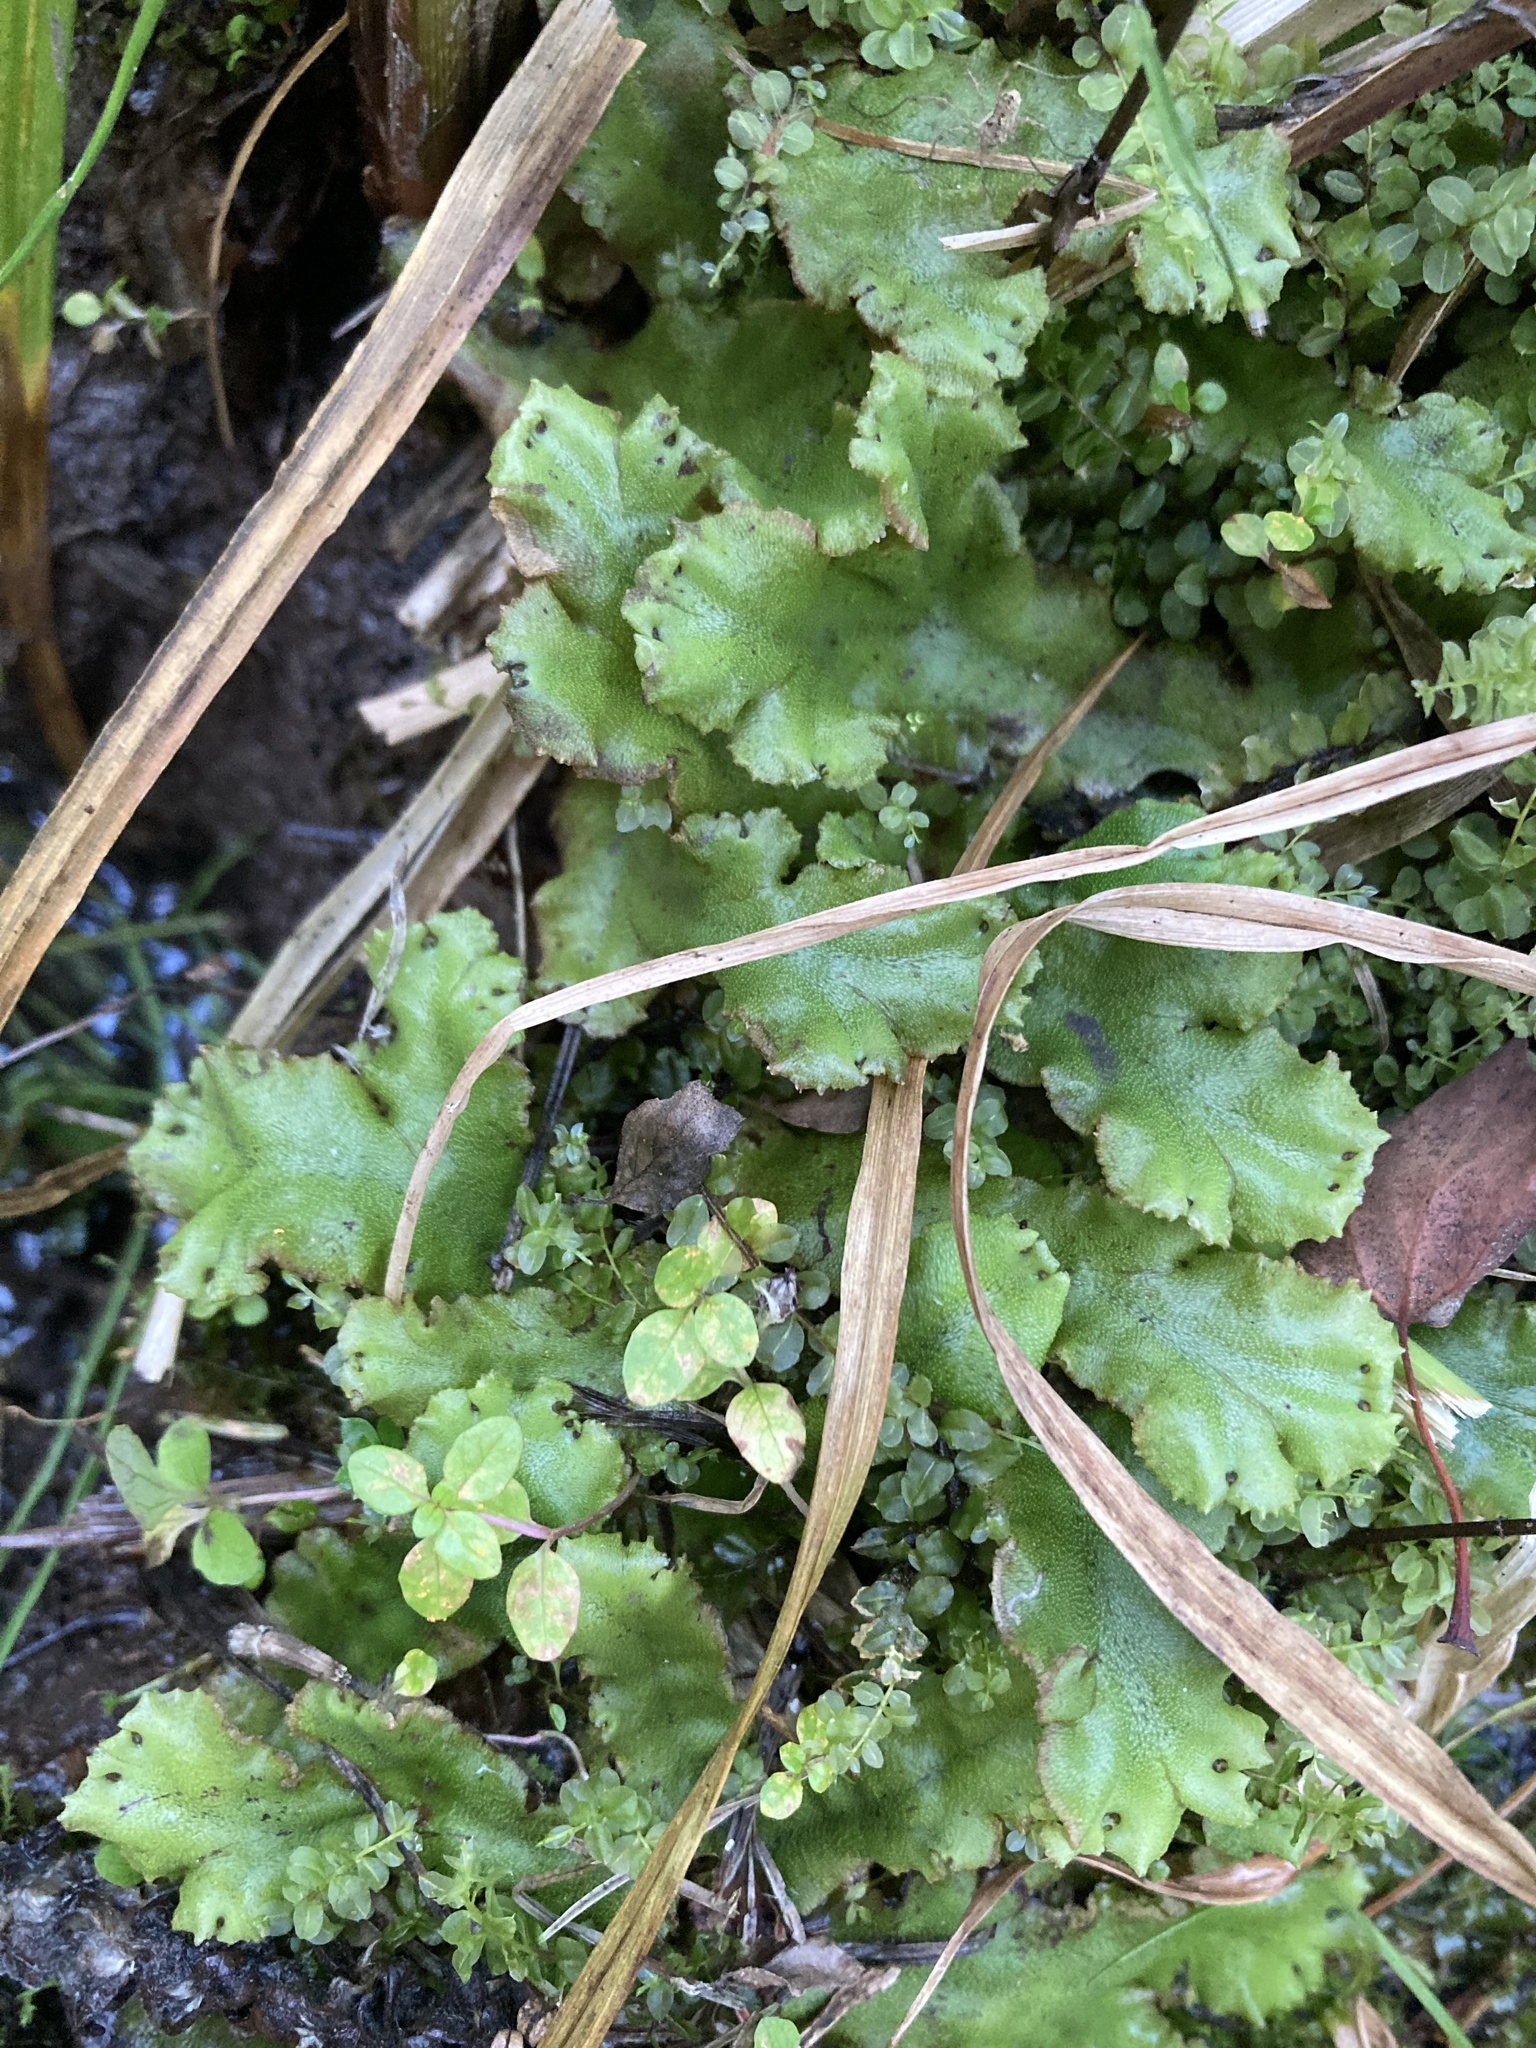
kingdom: Plantae
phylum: Marchantiophyta
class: Marchantiopsida
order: Marchantiales
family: Marchantiaceae
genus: Marchantia
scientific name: Marchantia polymorpha
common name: Common liverwort
